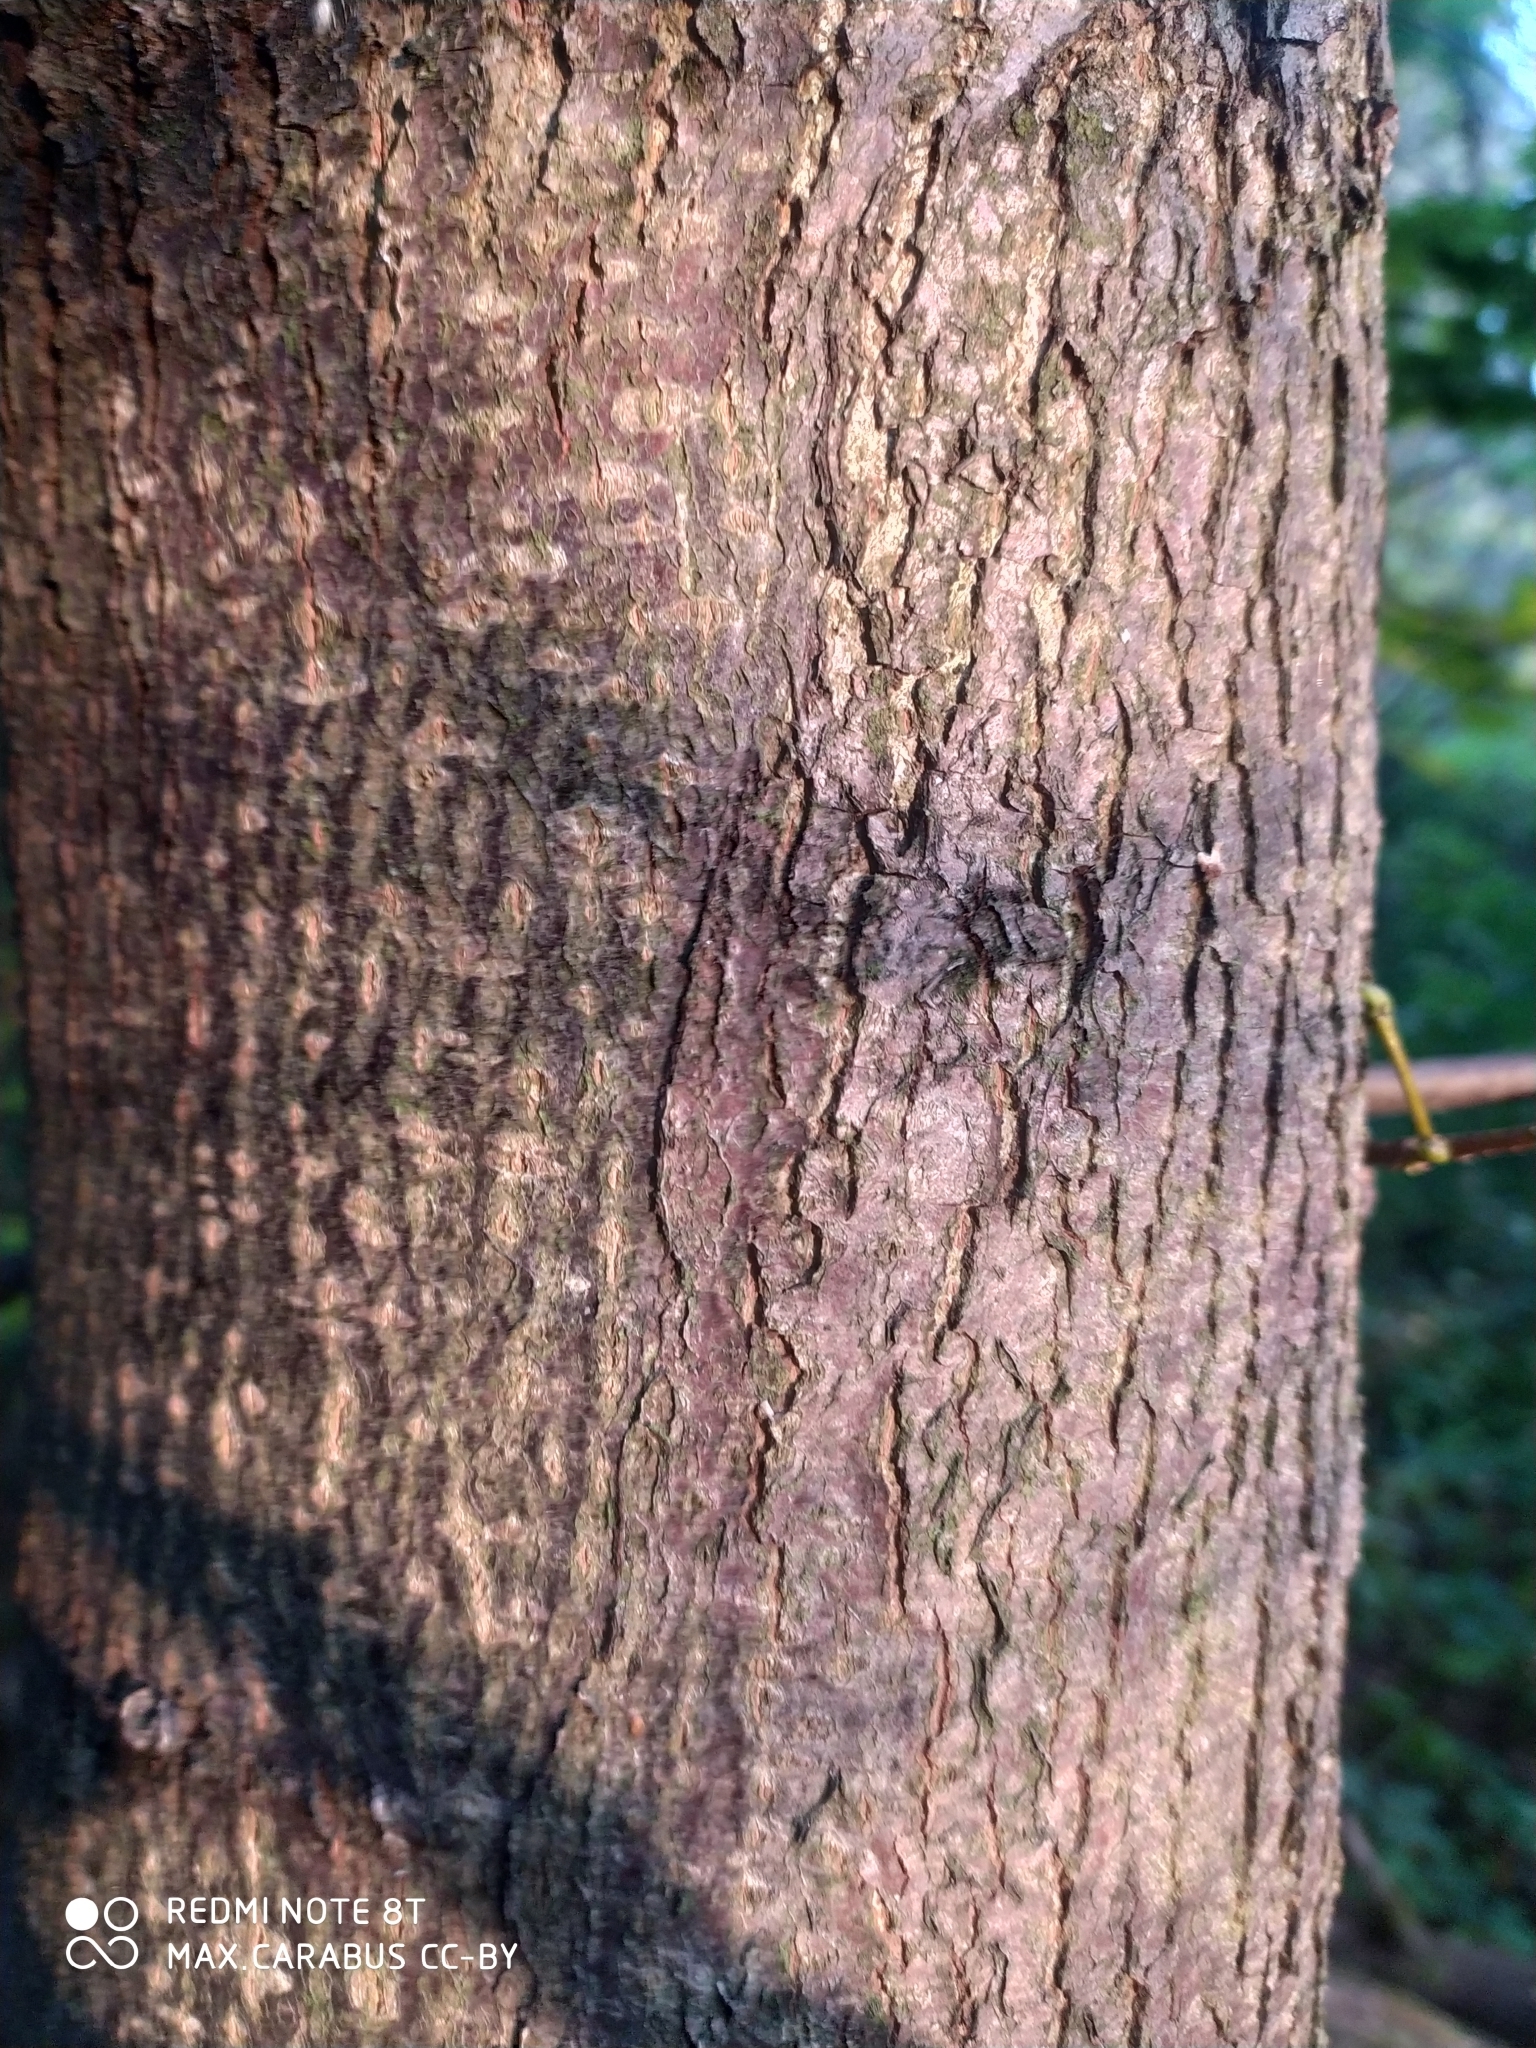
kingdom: Plantae
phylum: Tracheophyta
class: Magnoliopsida
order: Malvales
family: Malvaceae
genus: Tilia
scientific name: Tilia cordata
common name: Small-leaved lime
